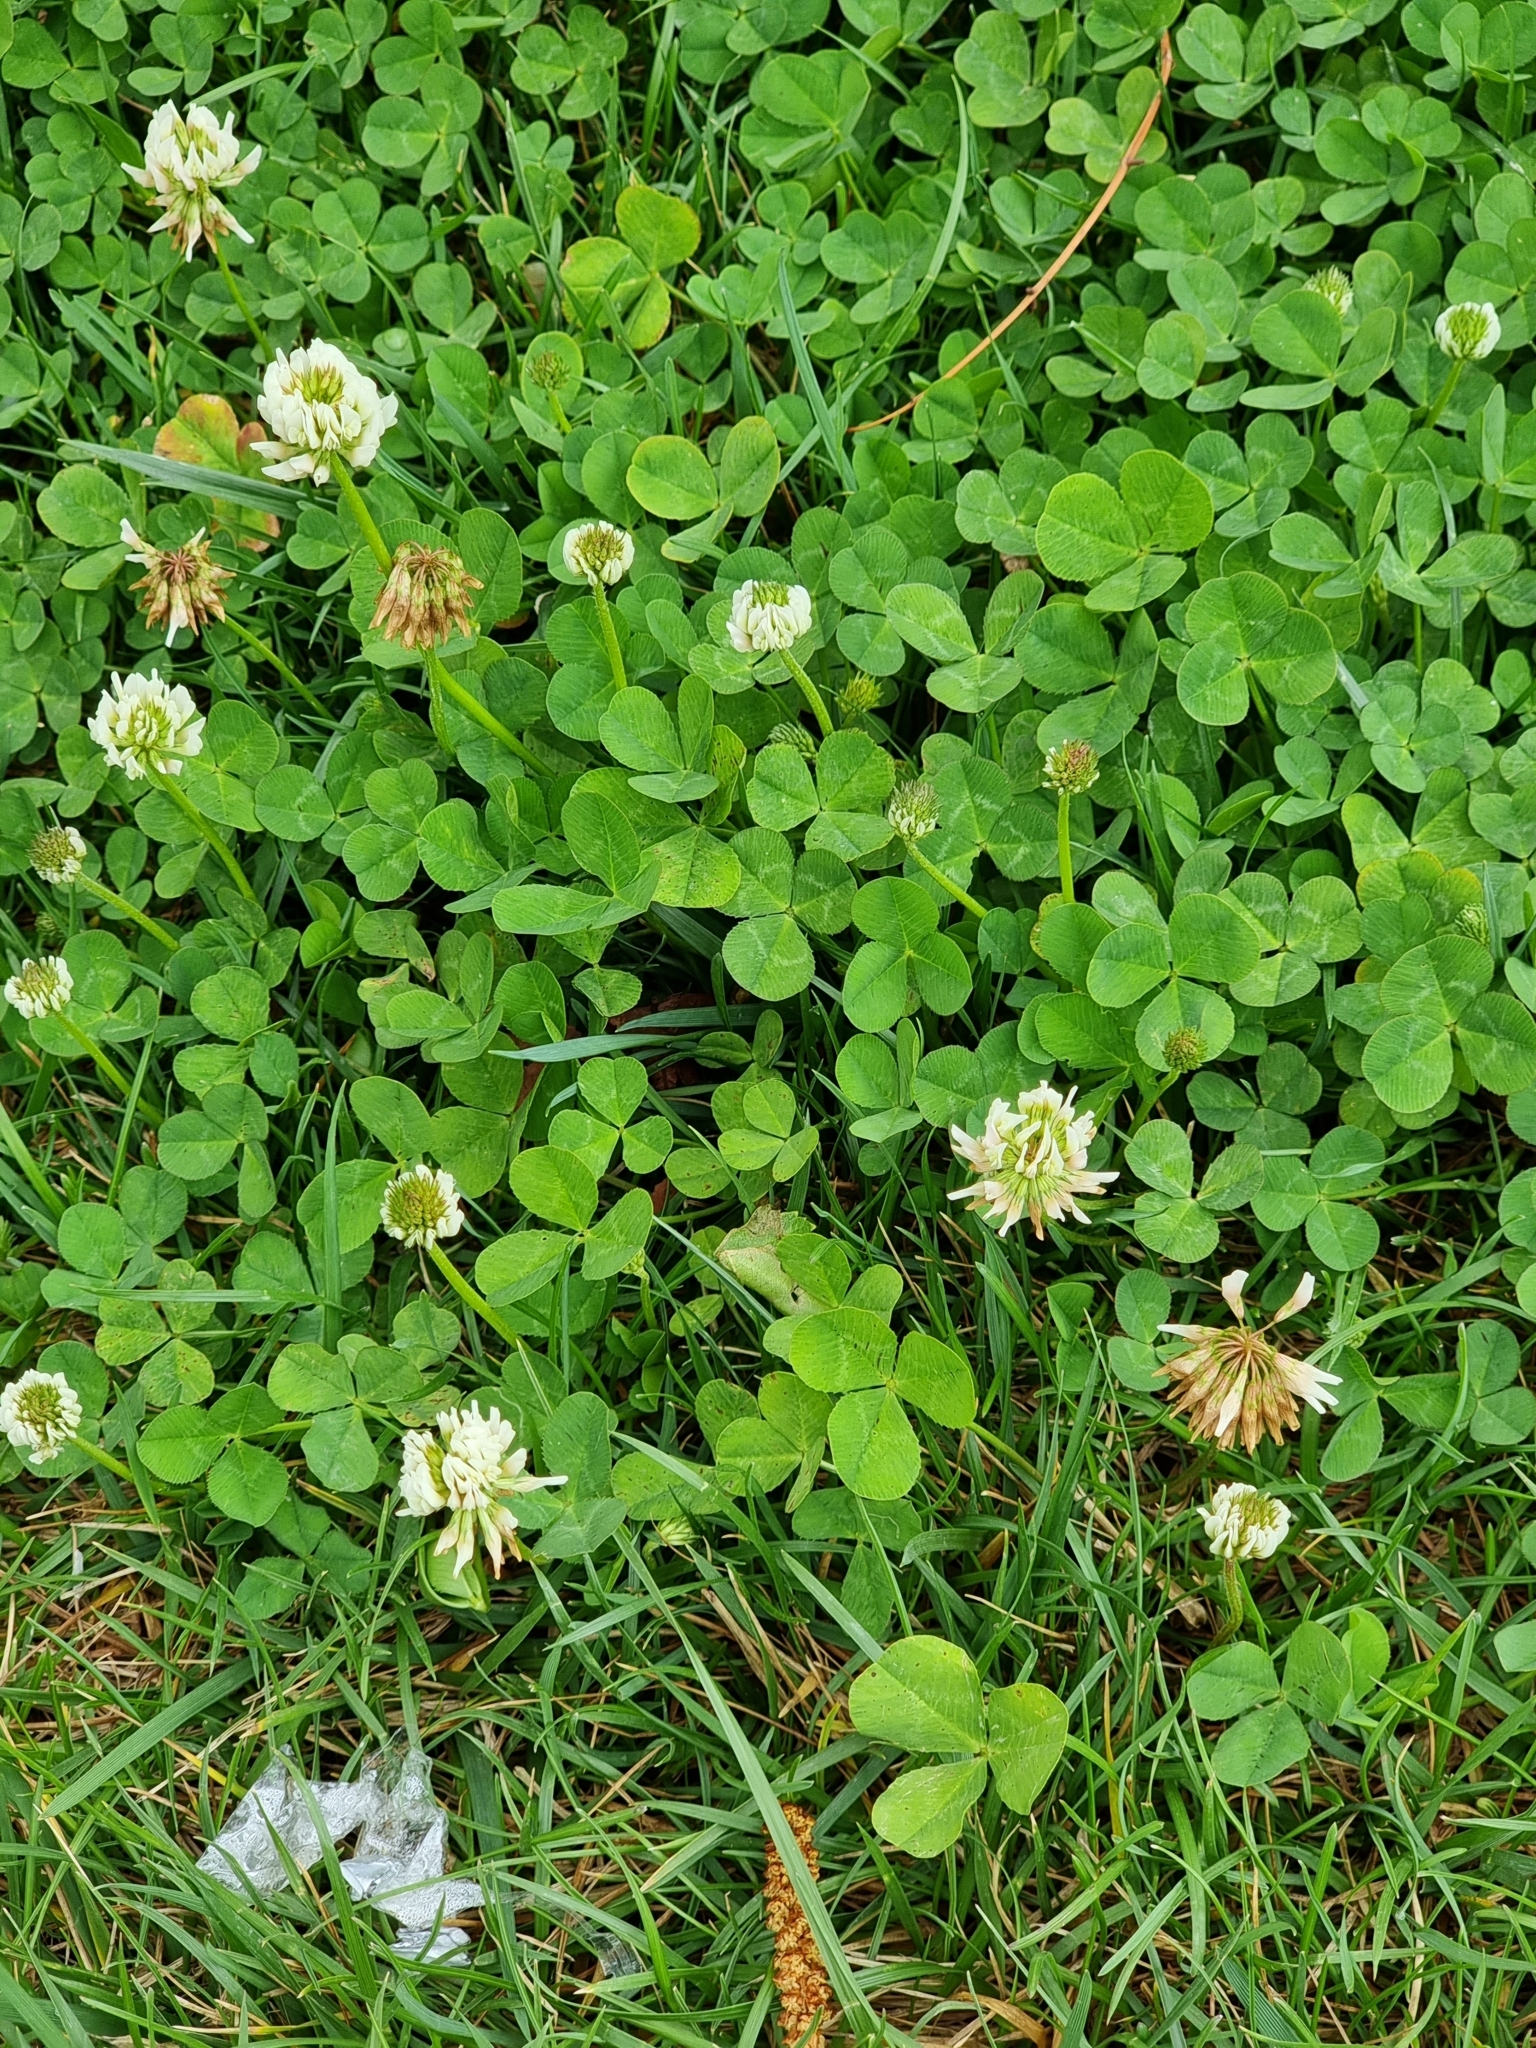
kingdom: Plantae
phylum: Tracheophyta
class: Magnoliopsida
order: Fabales
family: Fabaceae
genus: Trifolium
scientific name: Trifolium repens
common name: White clover
